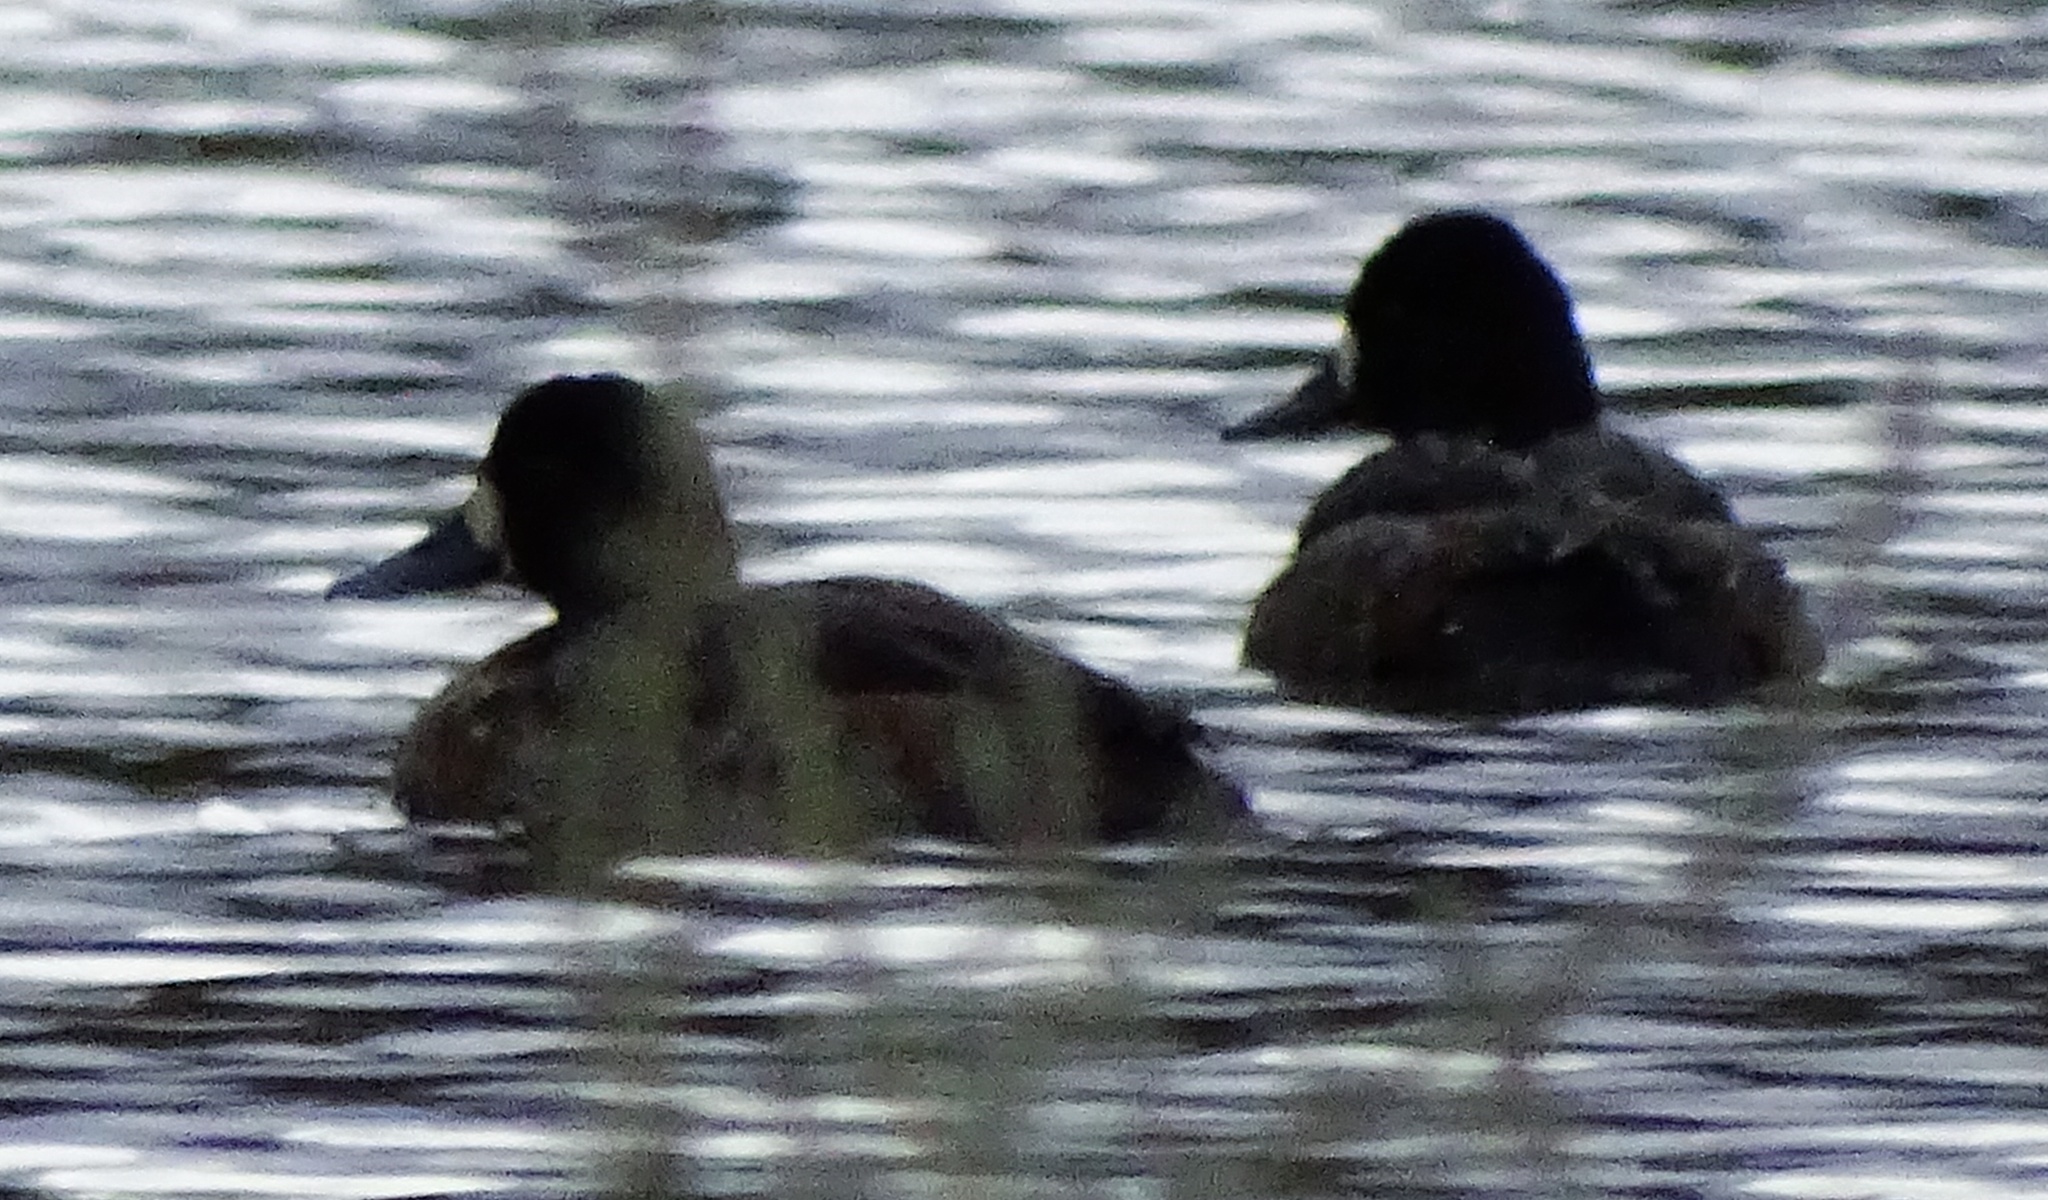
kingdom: Animalia
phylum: Chordata
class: Aves
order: Anseriformes
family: Anatidae
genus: Aythya
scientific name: Aythya affinis
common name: Lesser scaup
